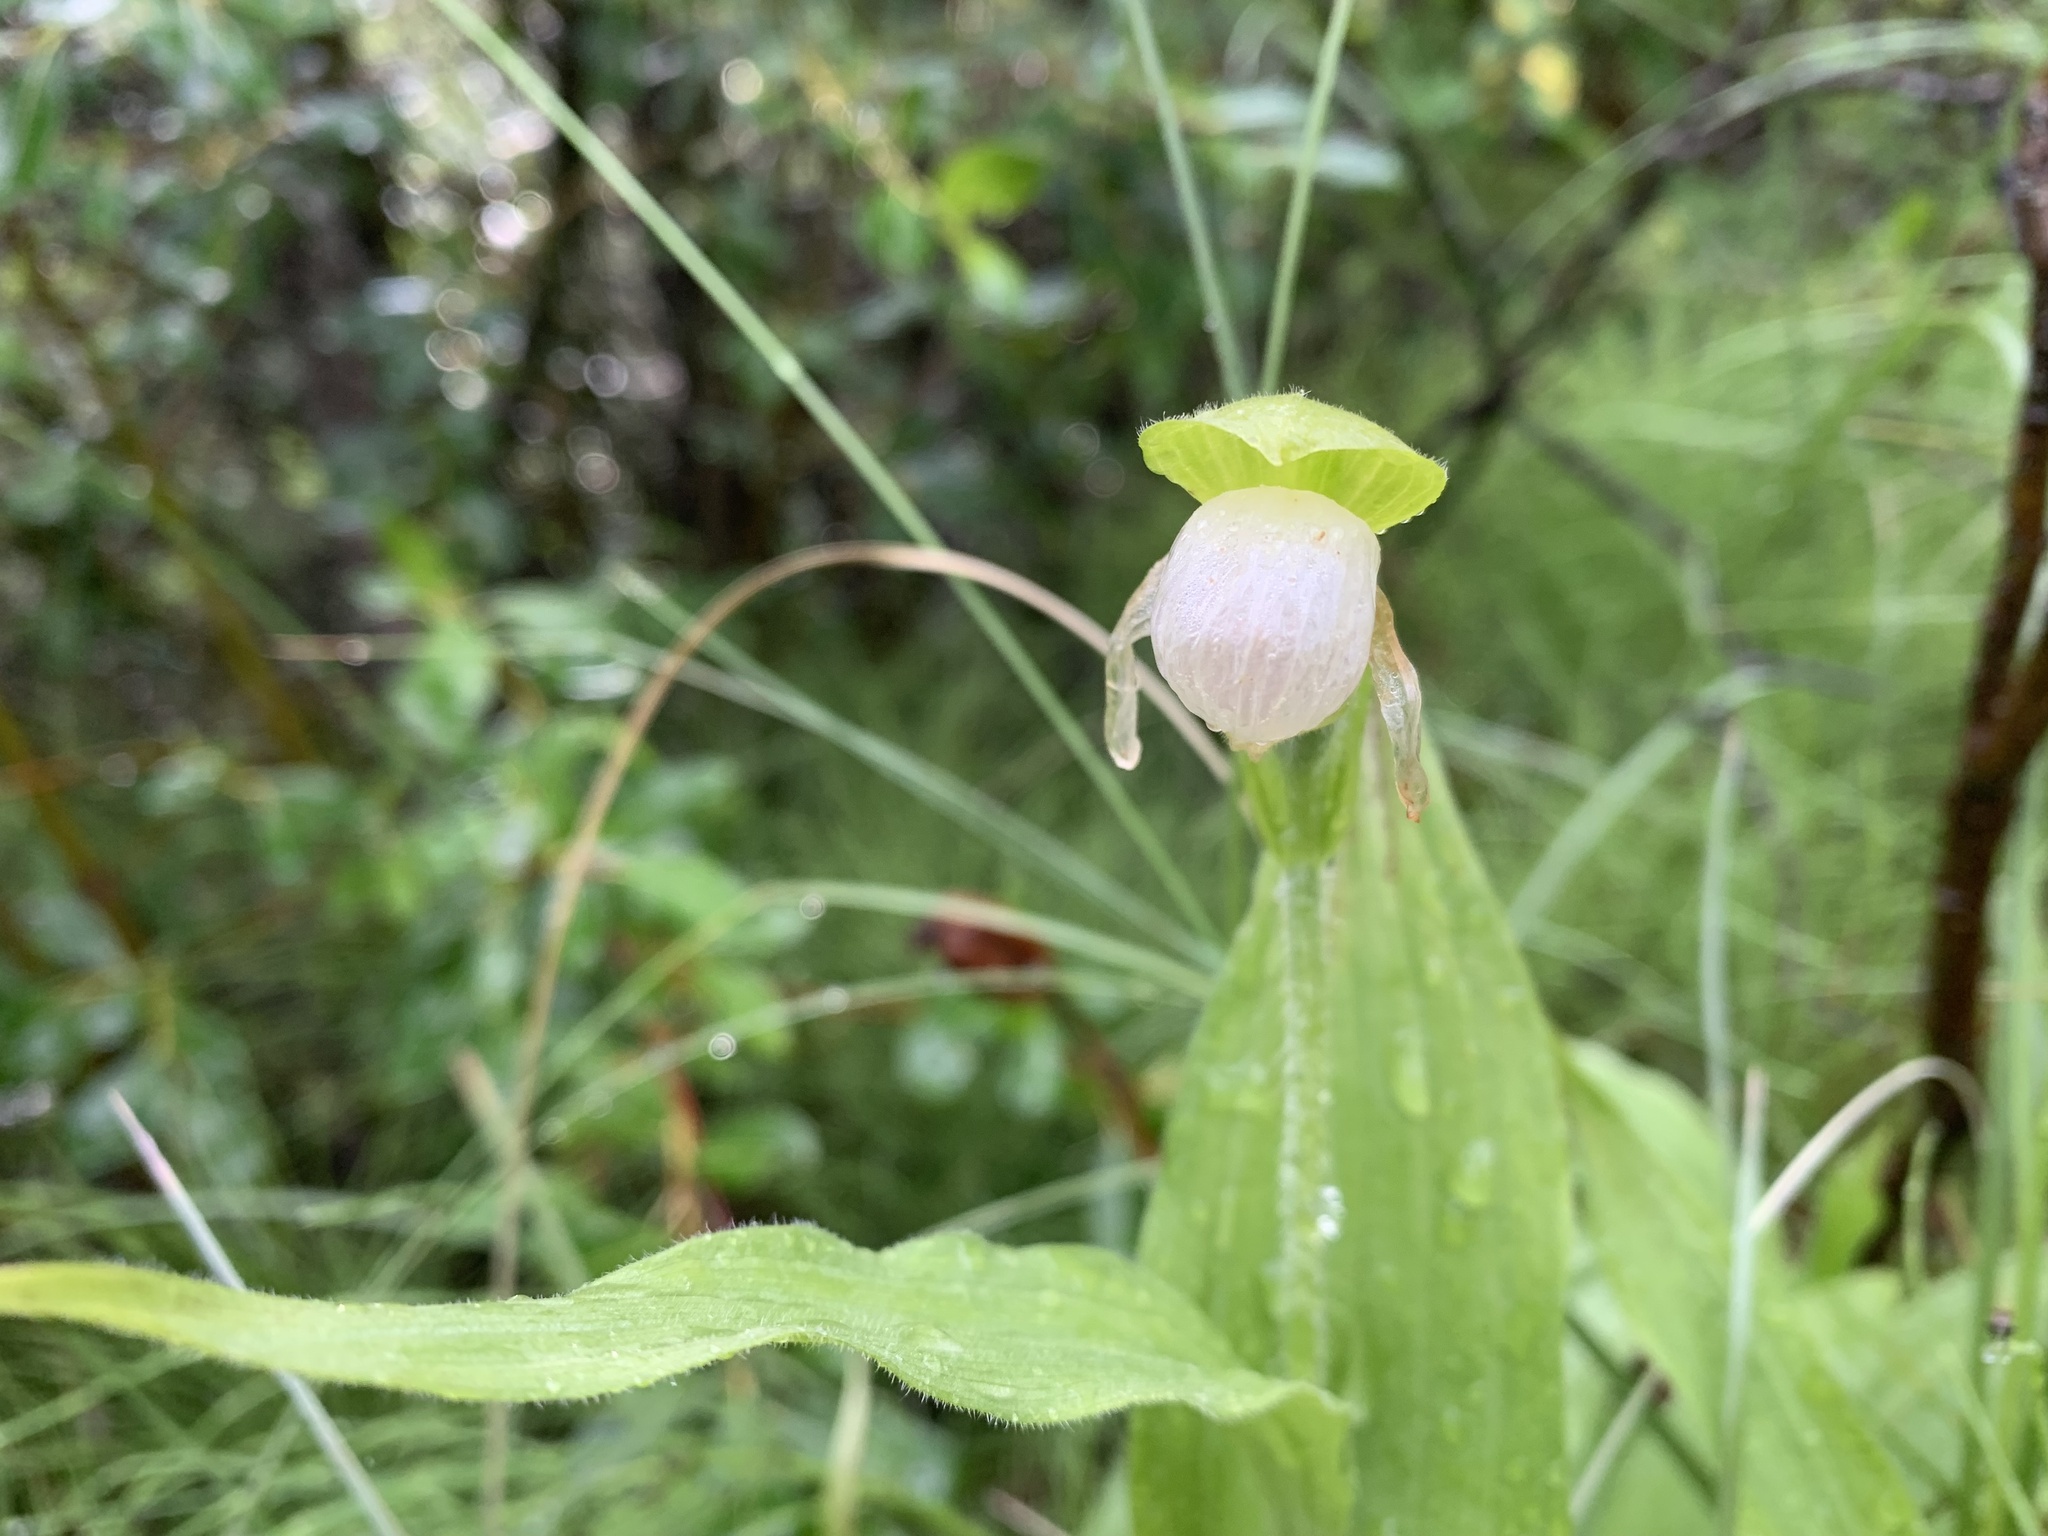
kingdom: Plantae
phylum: Tracheophyta
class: Liliopsida
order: Asparagales
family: Orchidaceae
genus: Cypripedium
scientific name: Cypripedium passerinum
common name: Sparrow's-egg lady's-slipper
